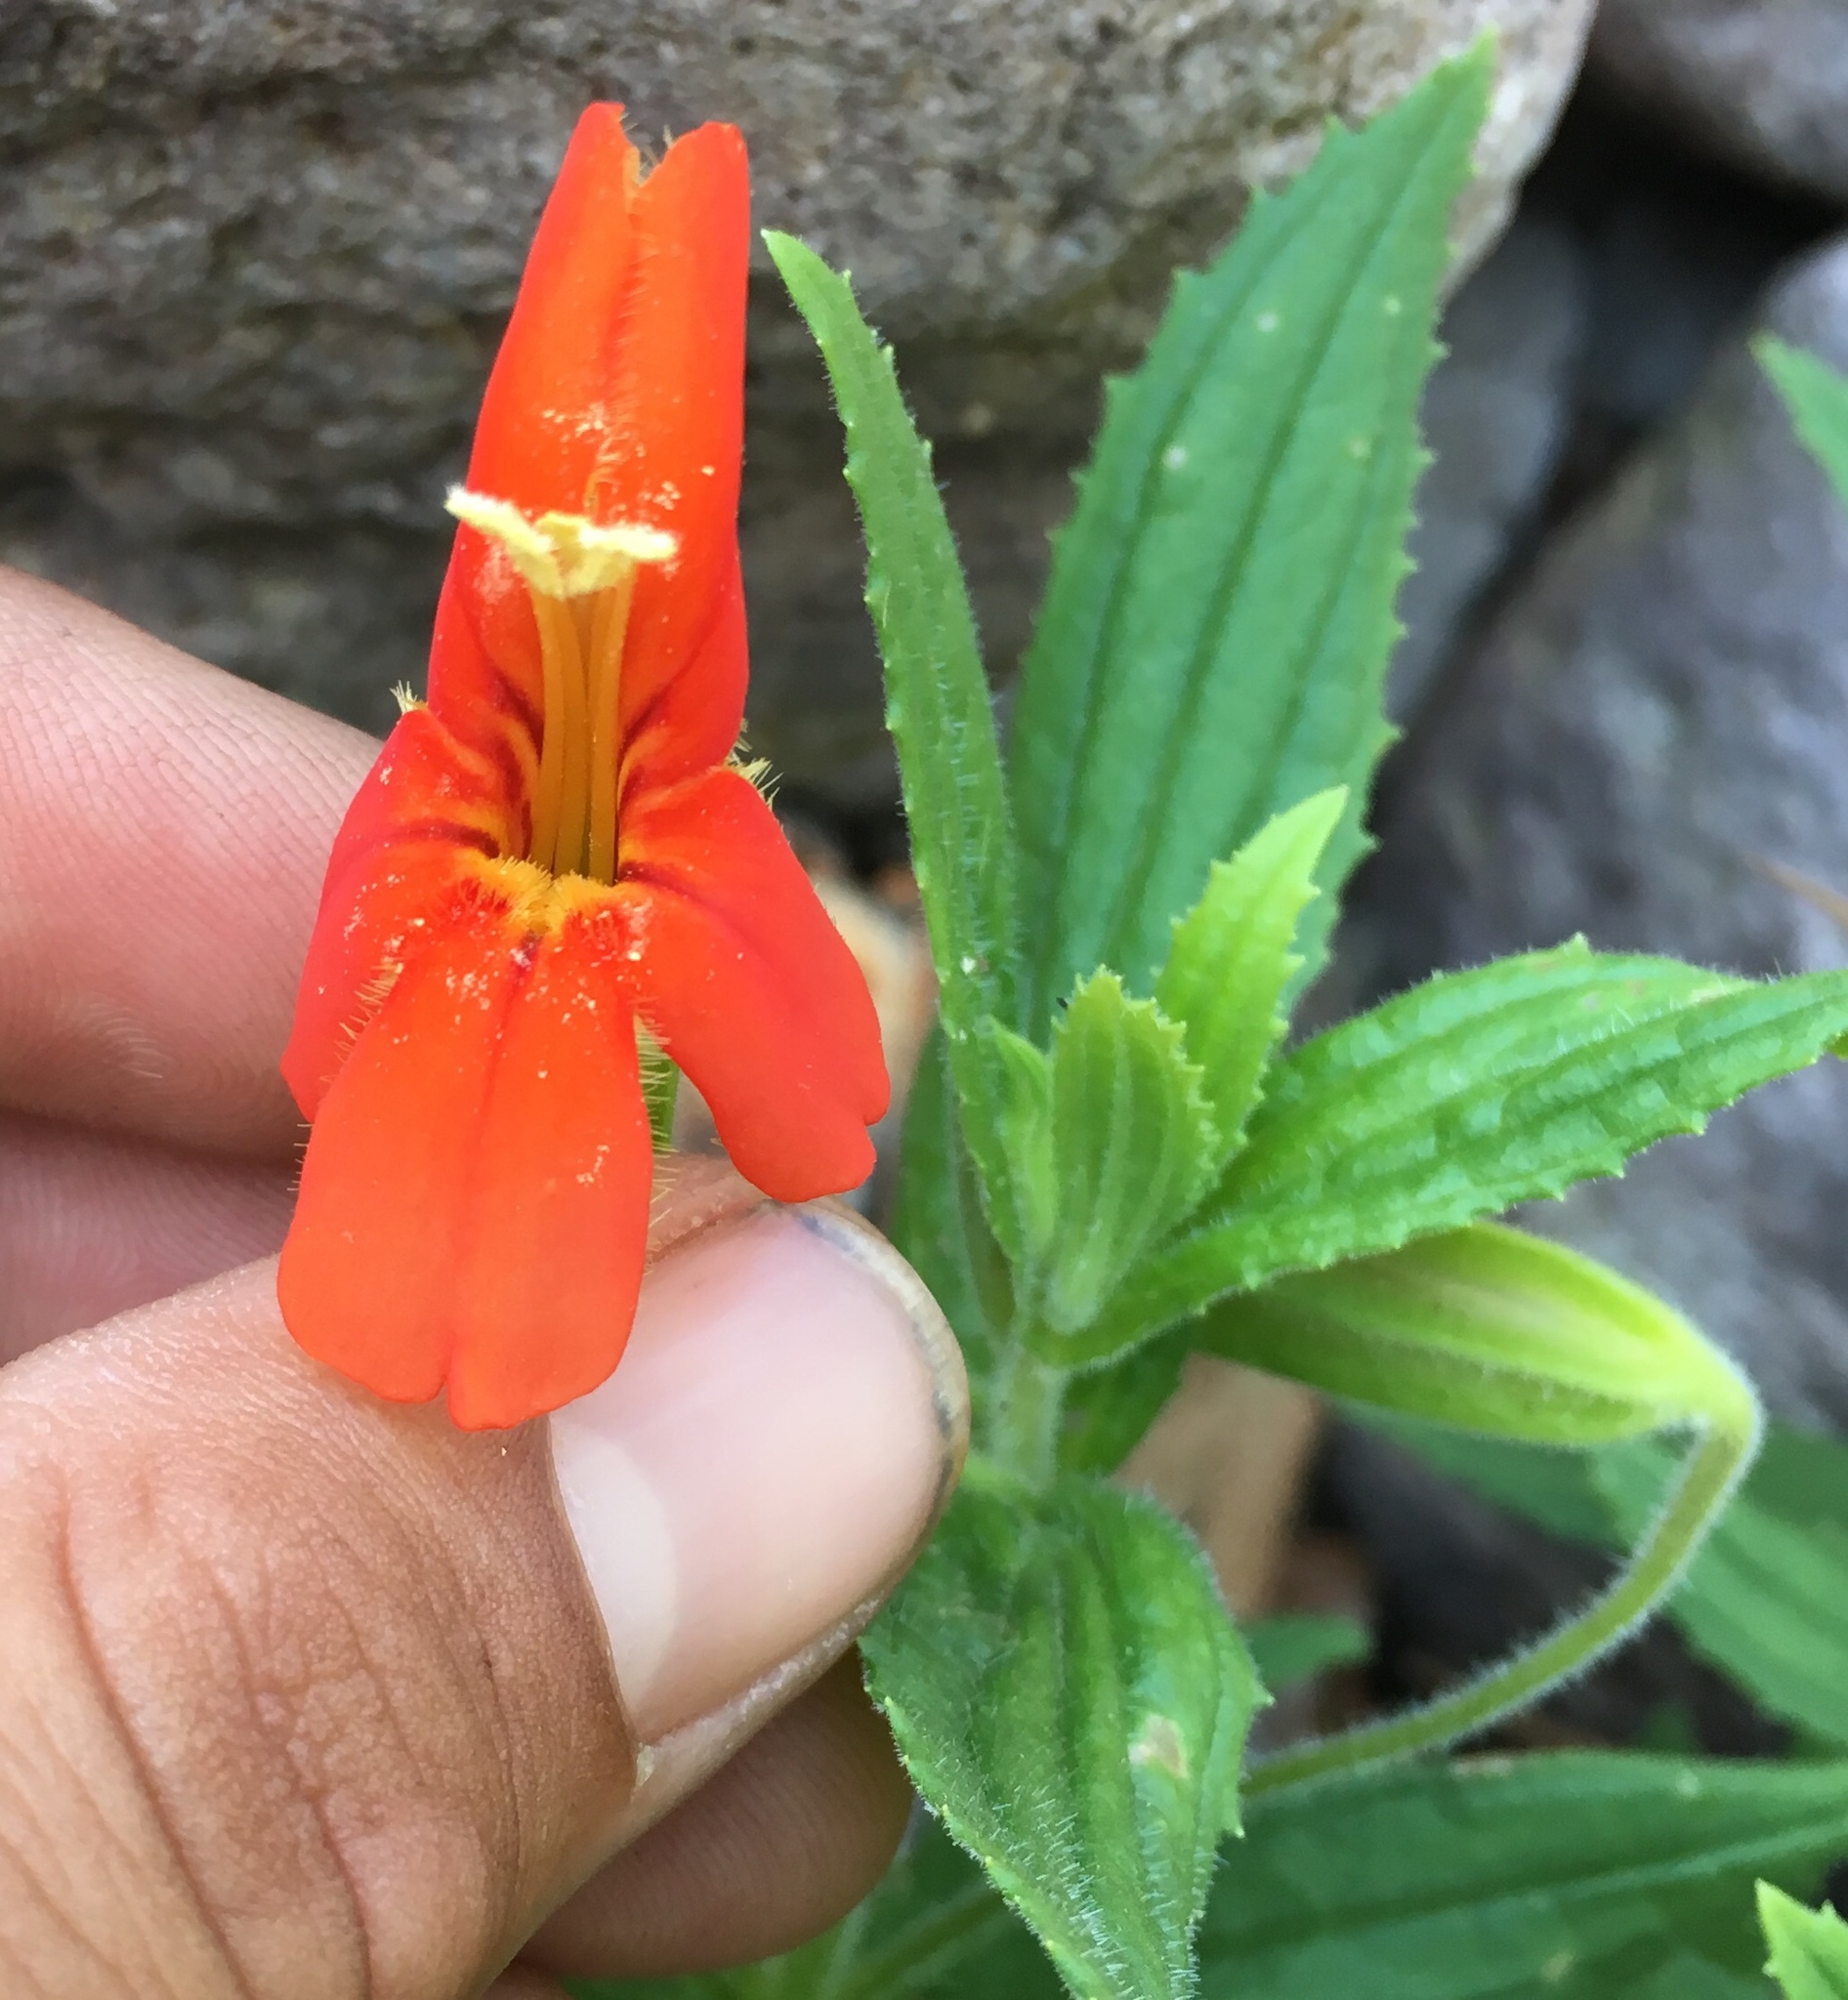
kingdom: Plantae
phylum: Tracheophyta
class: Magnoliopsida
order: Lamiales
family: Phrymaceae
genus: Erythranthe
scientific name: Erythranthe cinnabarina
